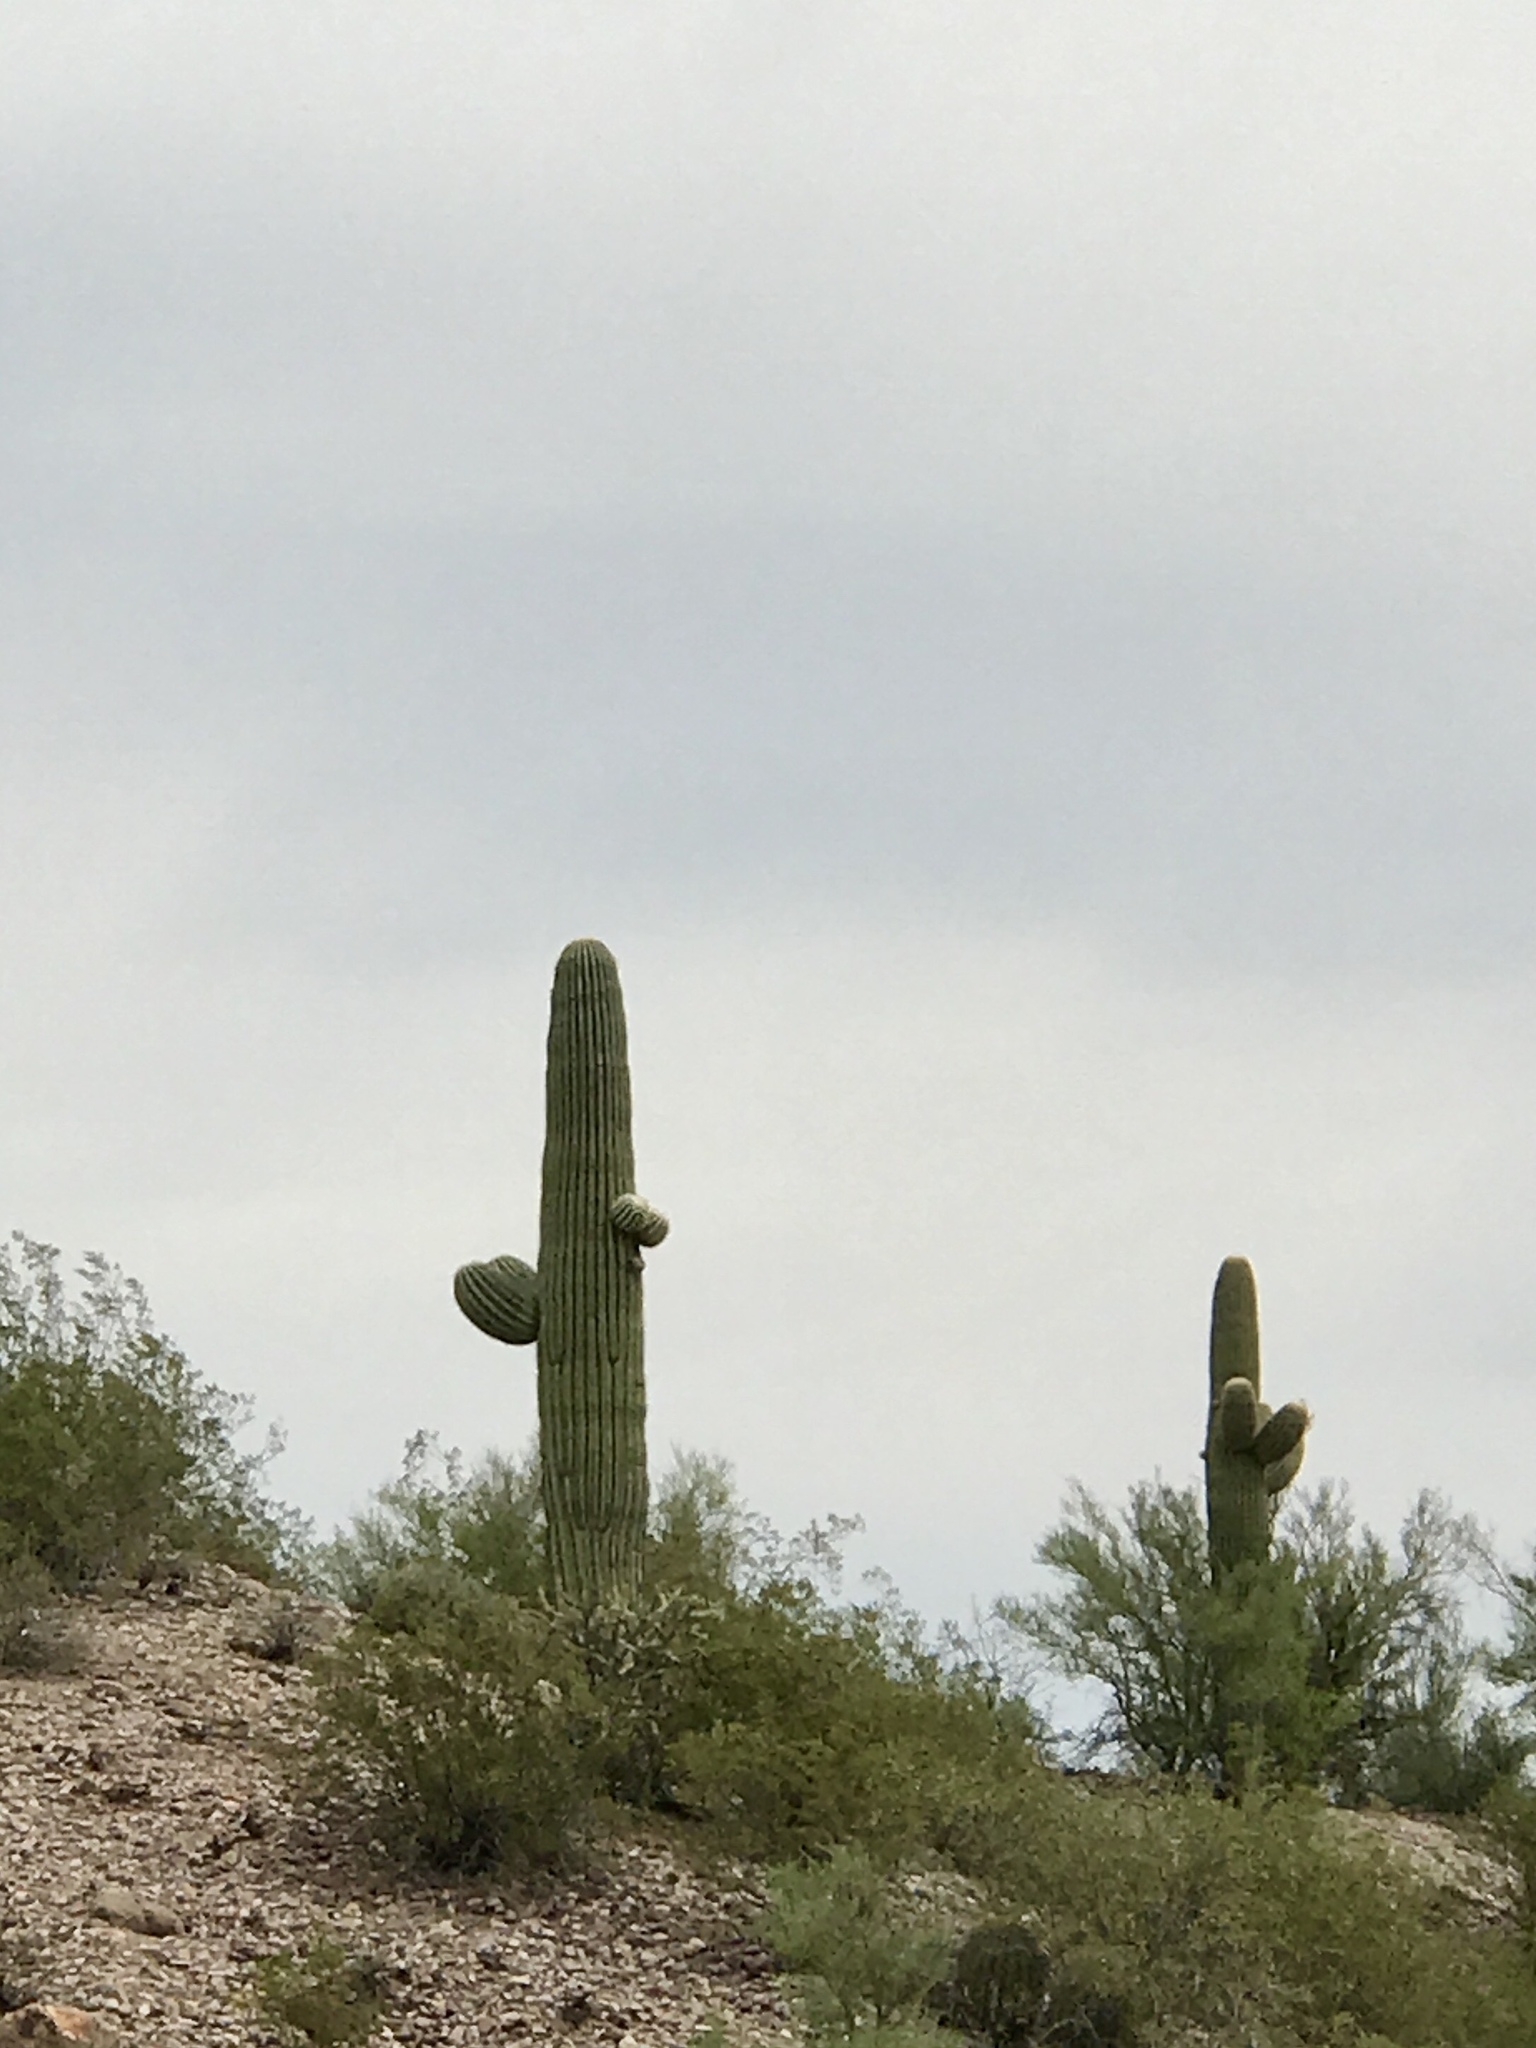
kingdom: Plantae
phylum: Tracheophyta
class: Magnoliopsida
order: Caryophyllales
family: Cactaceae
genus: Carnegiea
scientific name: Carnegiea gigantea
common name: Saguaro
